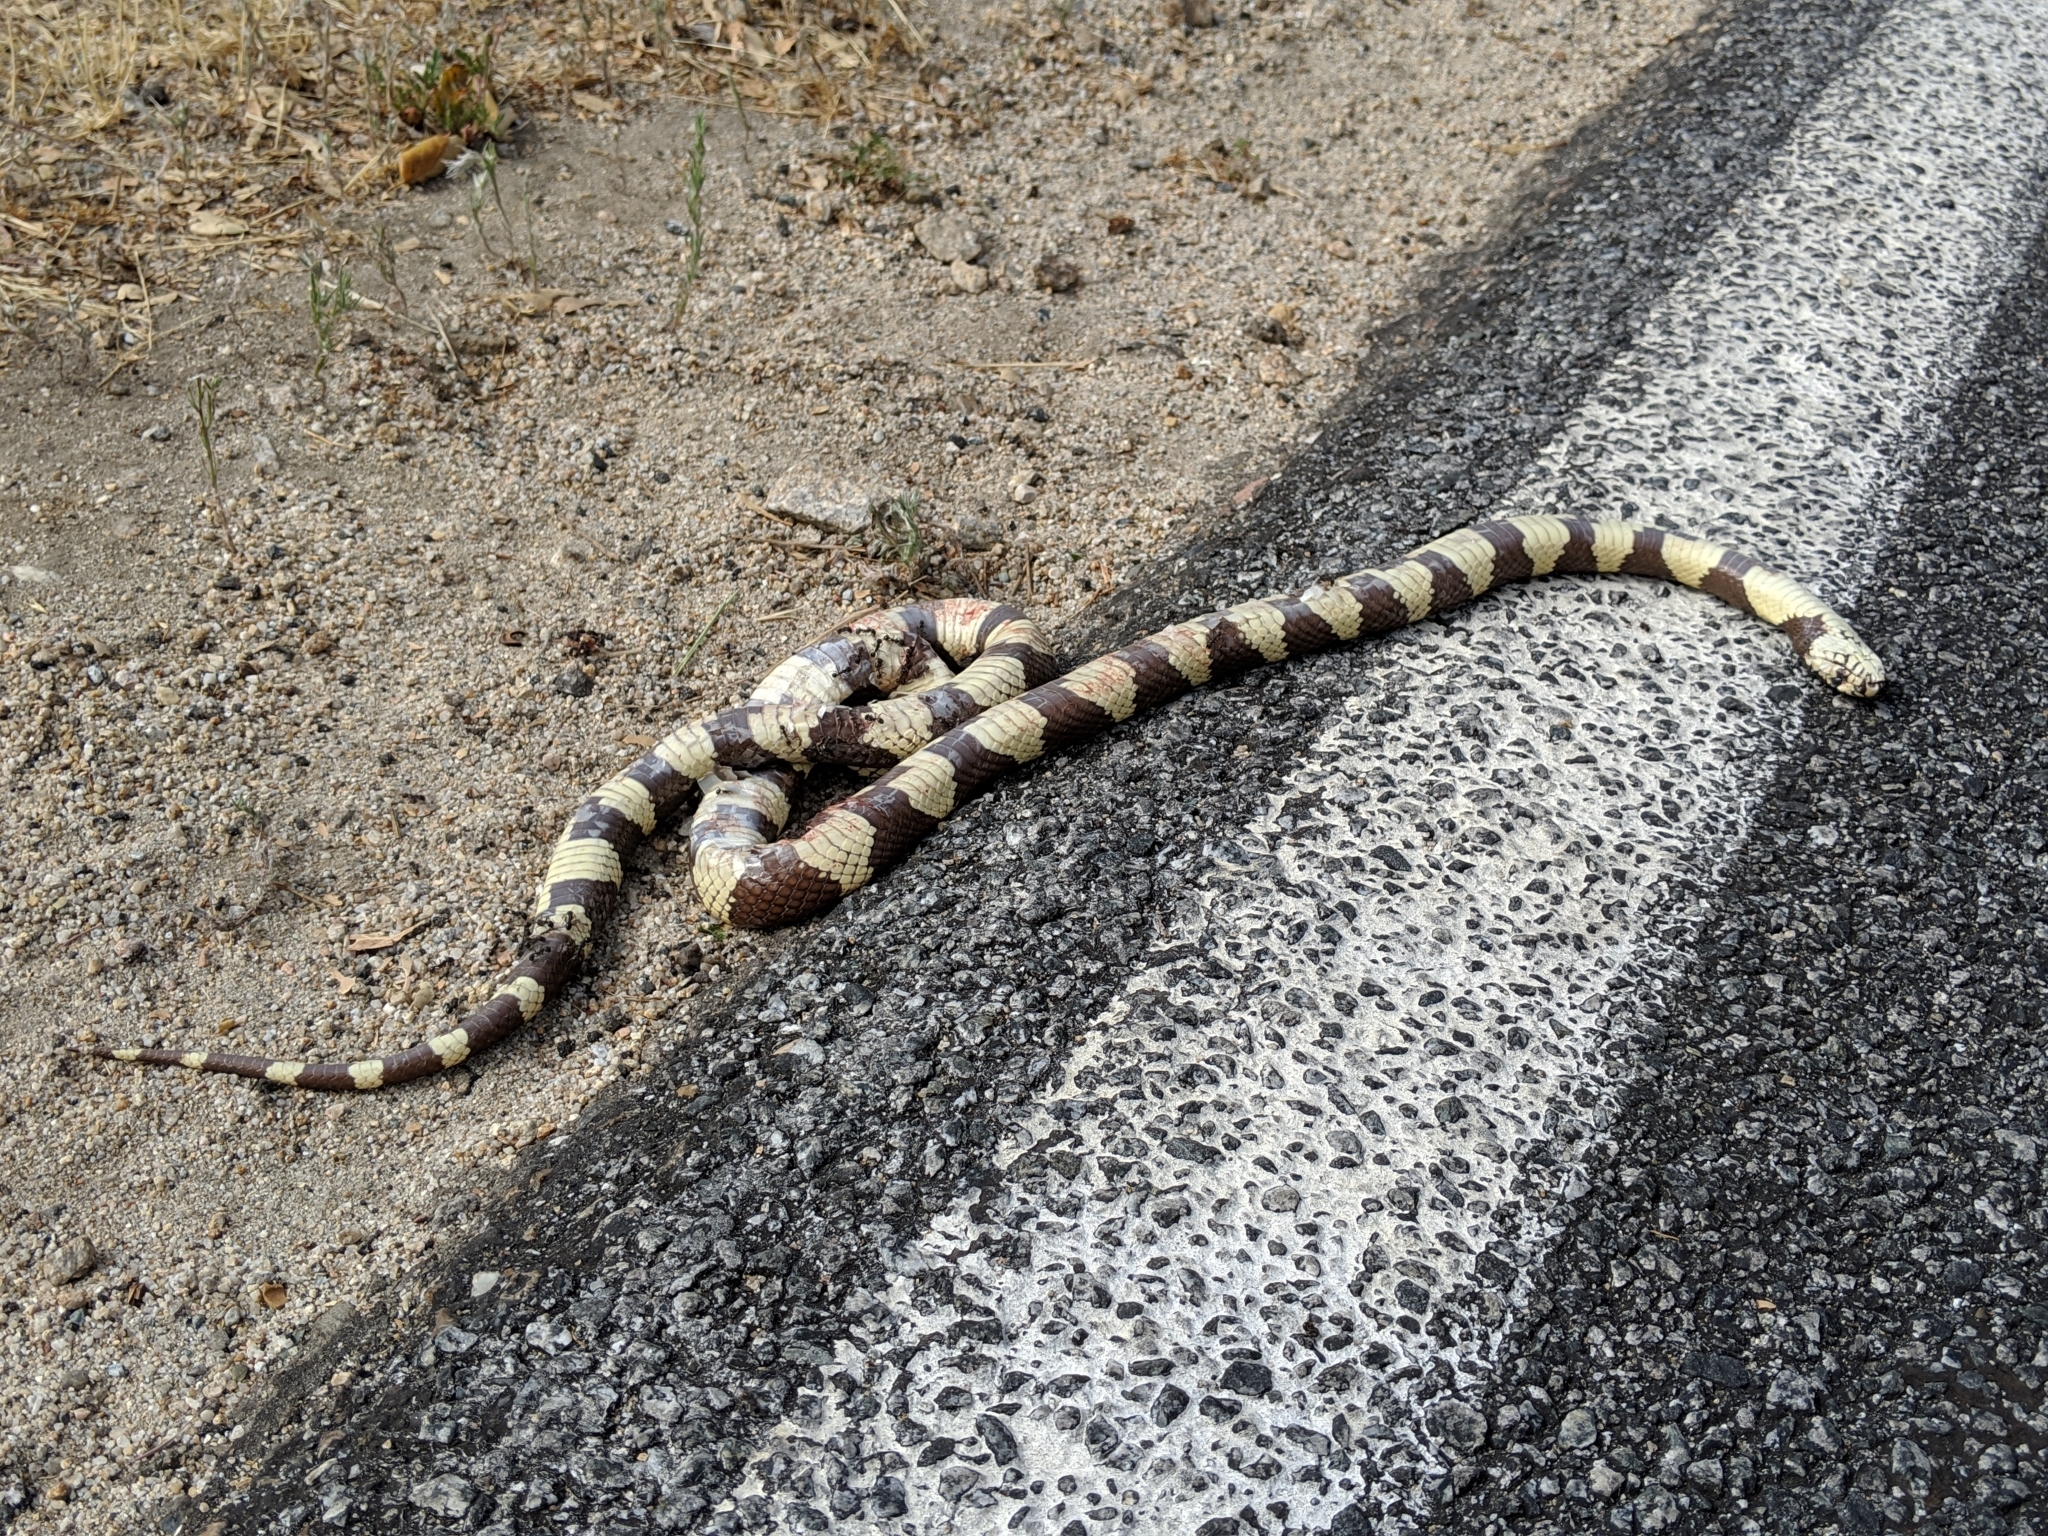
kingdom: Animalia
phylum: Chordata
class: Squamata
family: Colubridae
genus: Lampropeltis
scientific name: Lampropeltis californiae
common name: California kingsnake
